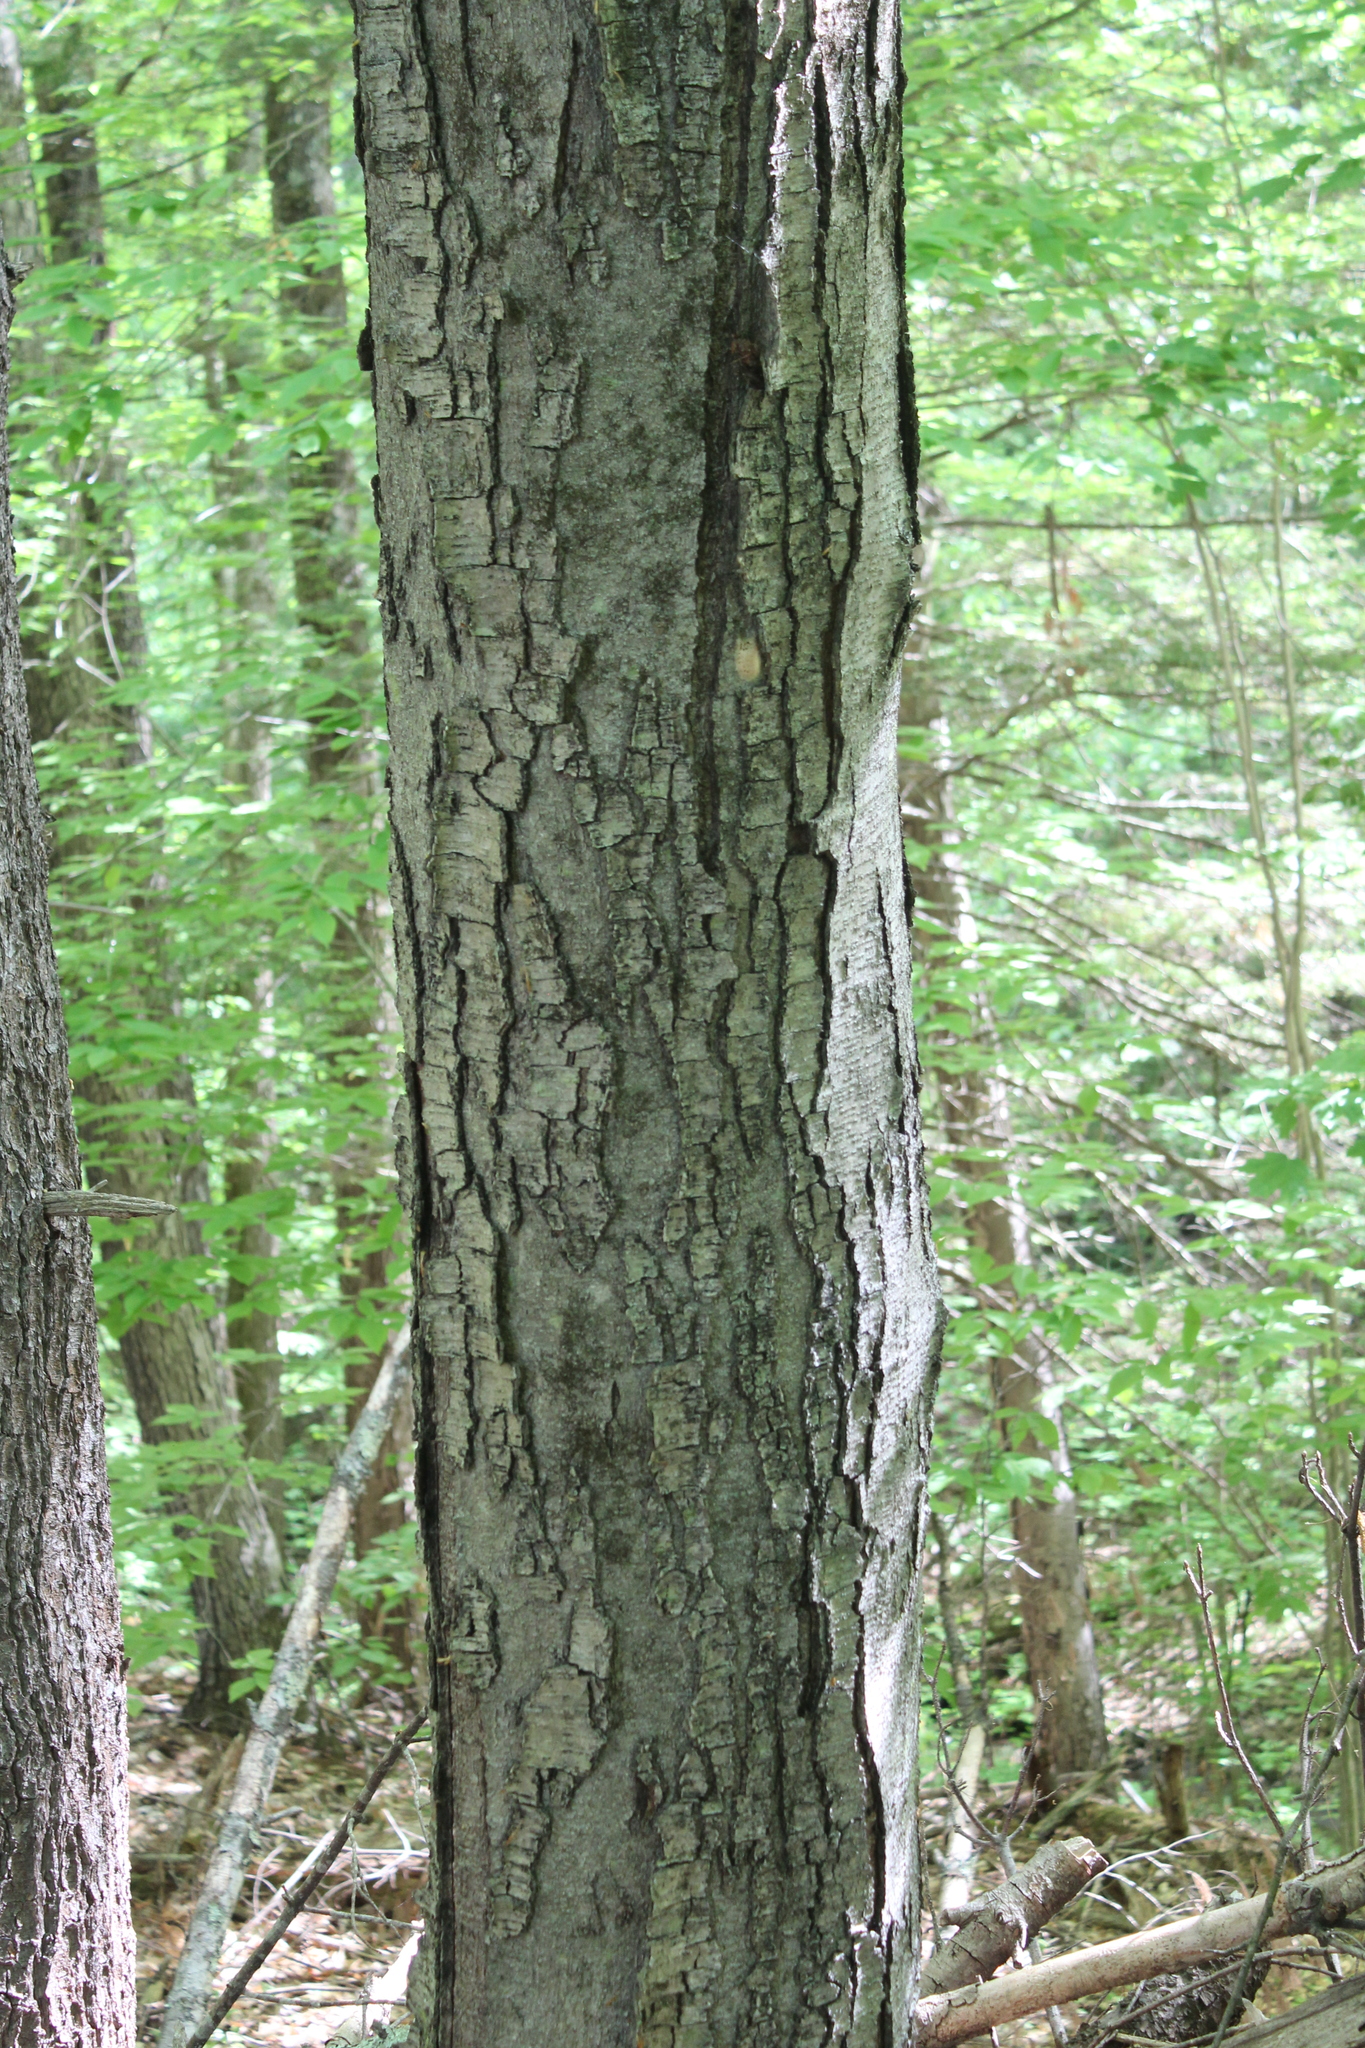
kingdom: Plantae
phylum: Tracheophyta
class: Magnoliopsida
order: Fagales
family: Betulaceae
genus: Betula
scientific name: Betula lenta
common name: Black birch
